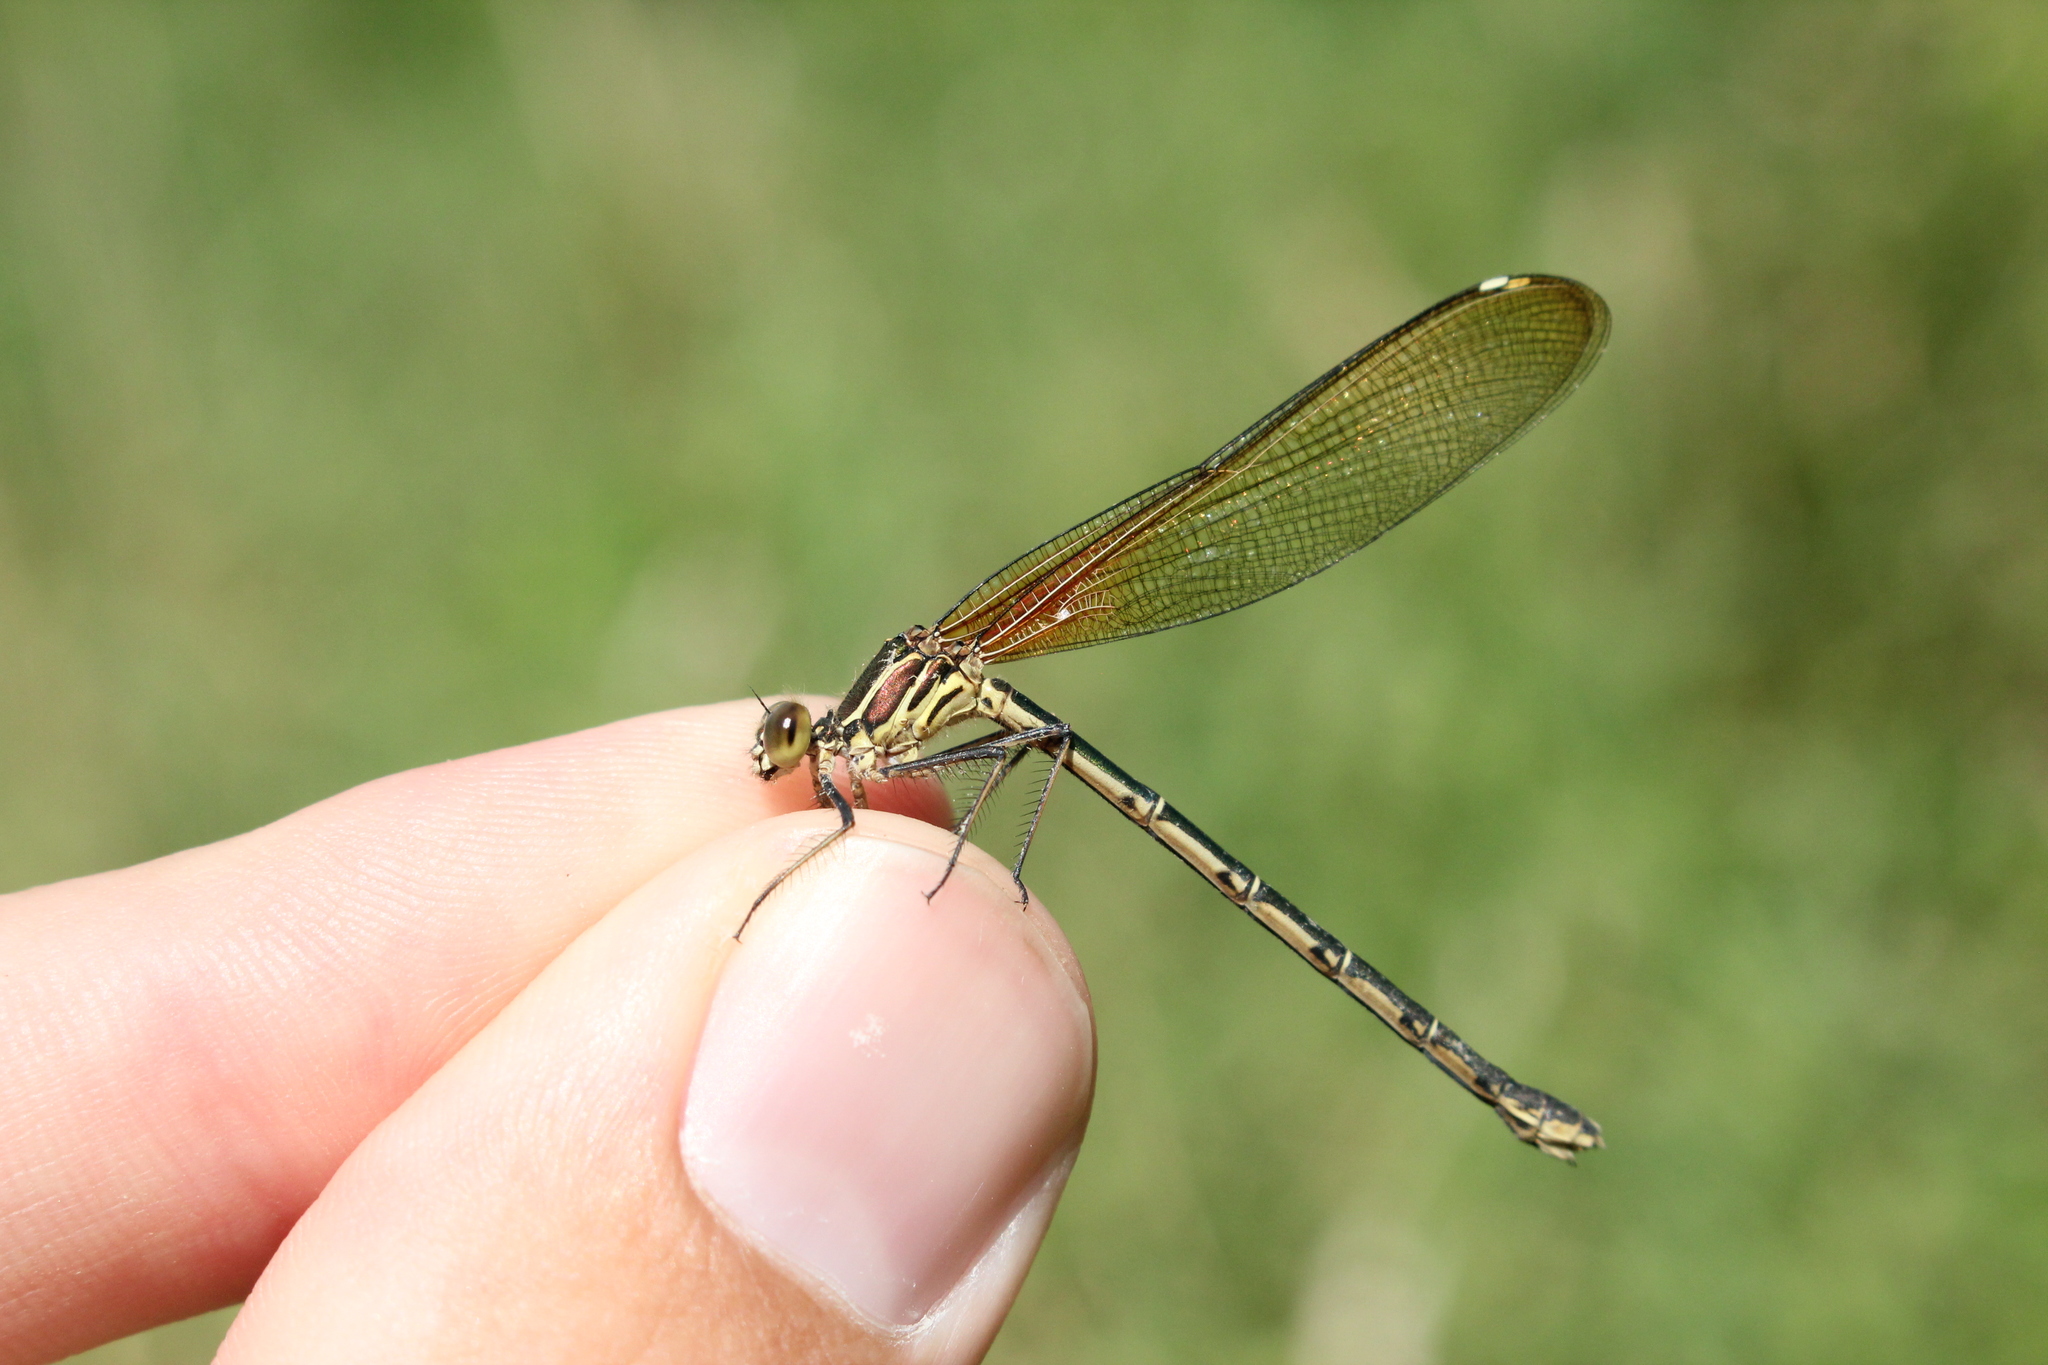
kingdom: Animalia
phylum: Arthropoda
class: Insecta
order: Odonata
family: Calopterygidae
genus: Hetaerina
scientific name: Hetaerina americana
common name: American rubyspot
